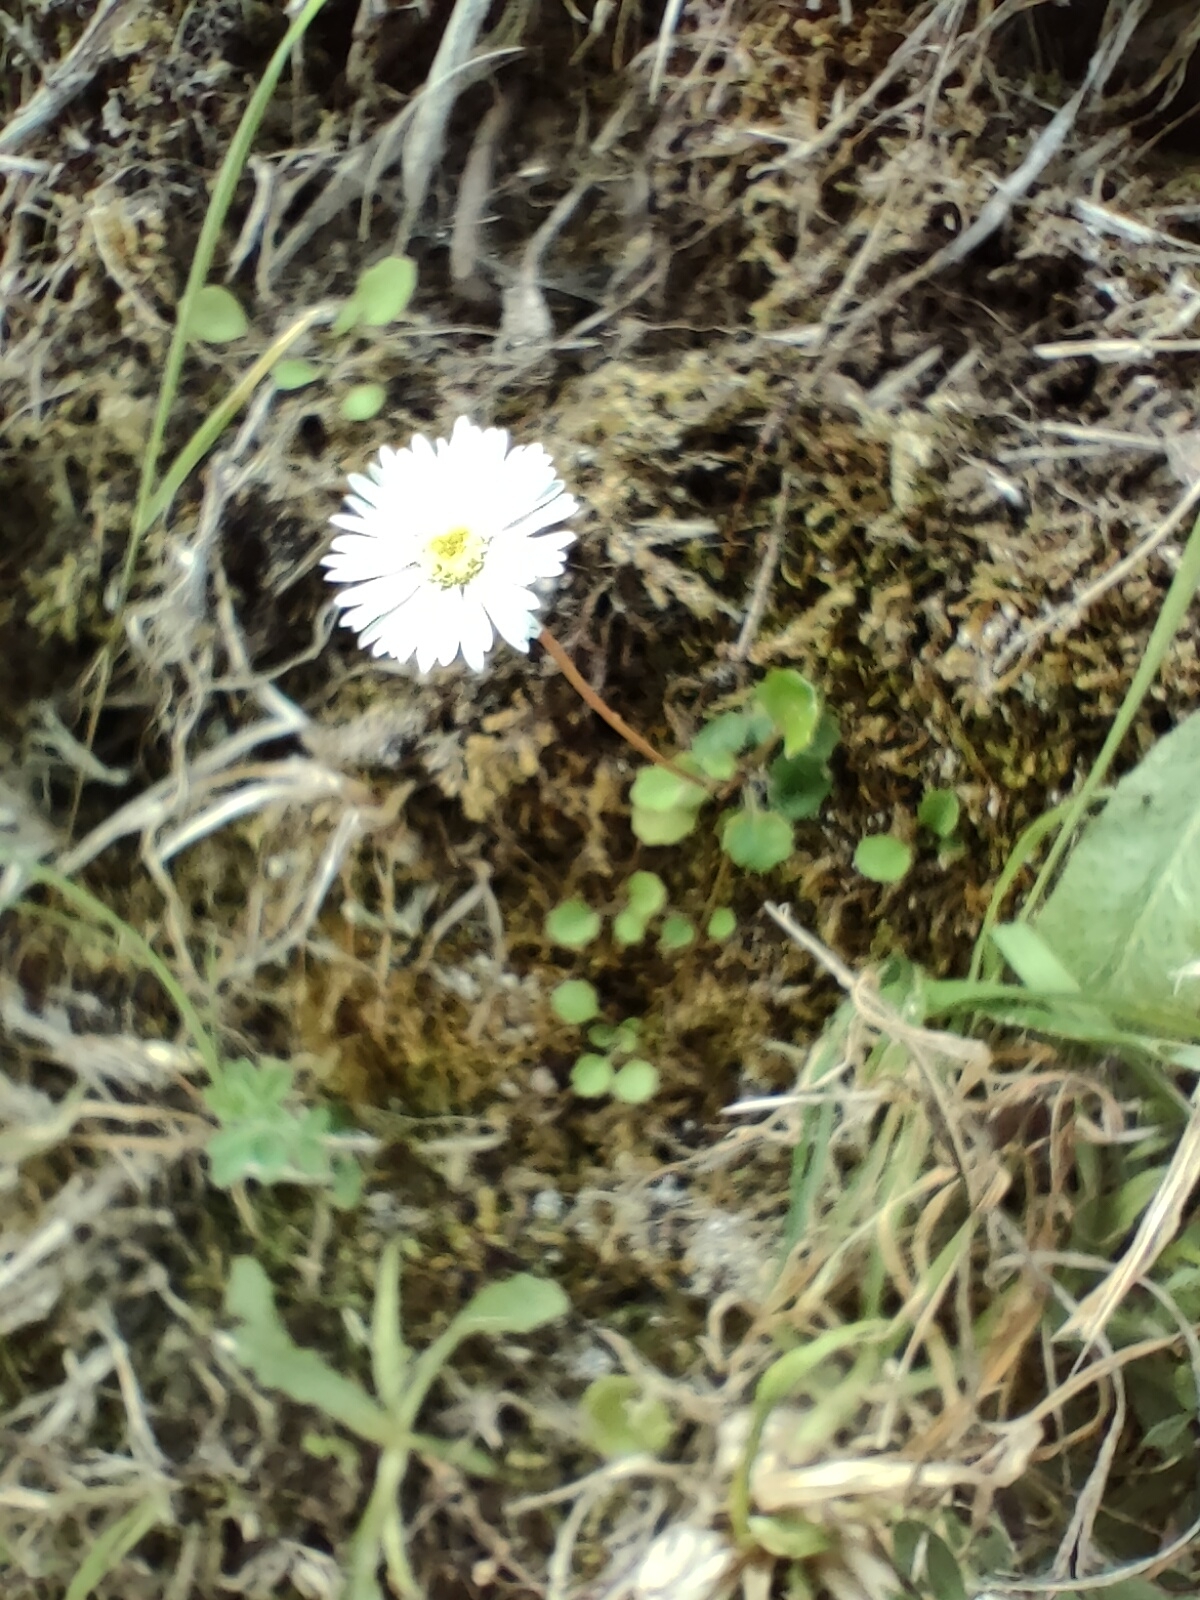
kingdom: Plantae
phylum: Tracheophyta
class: Magnoliopsida
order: Asterales
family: Asteraceae
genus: Lagenophora
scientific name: Lagenophora pumila
